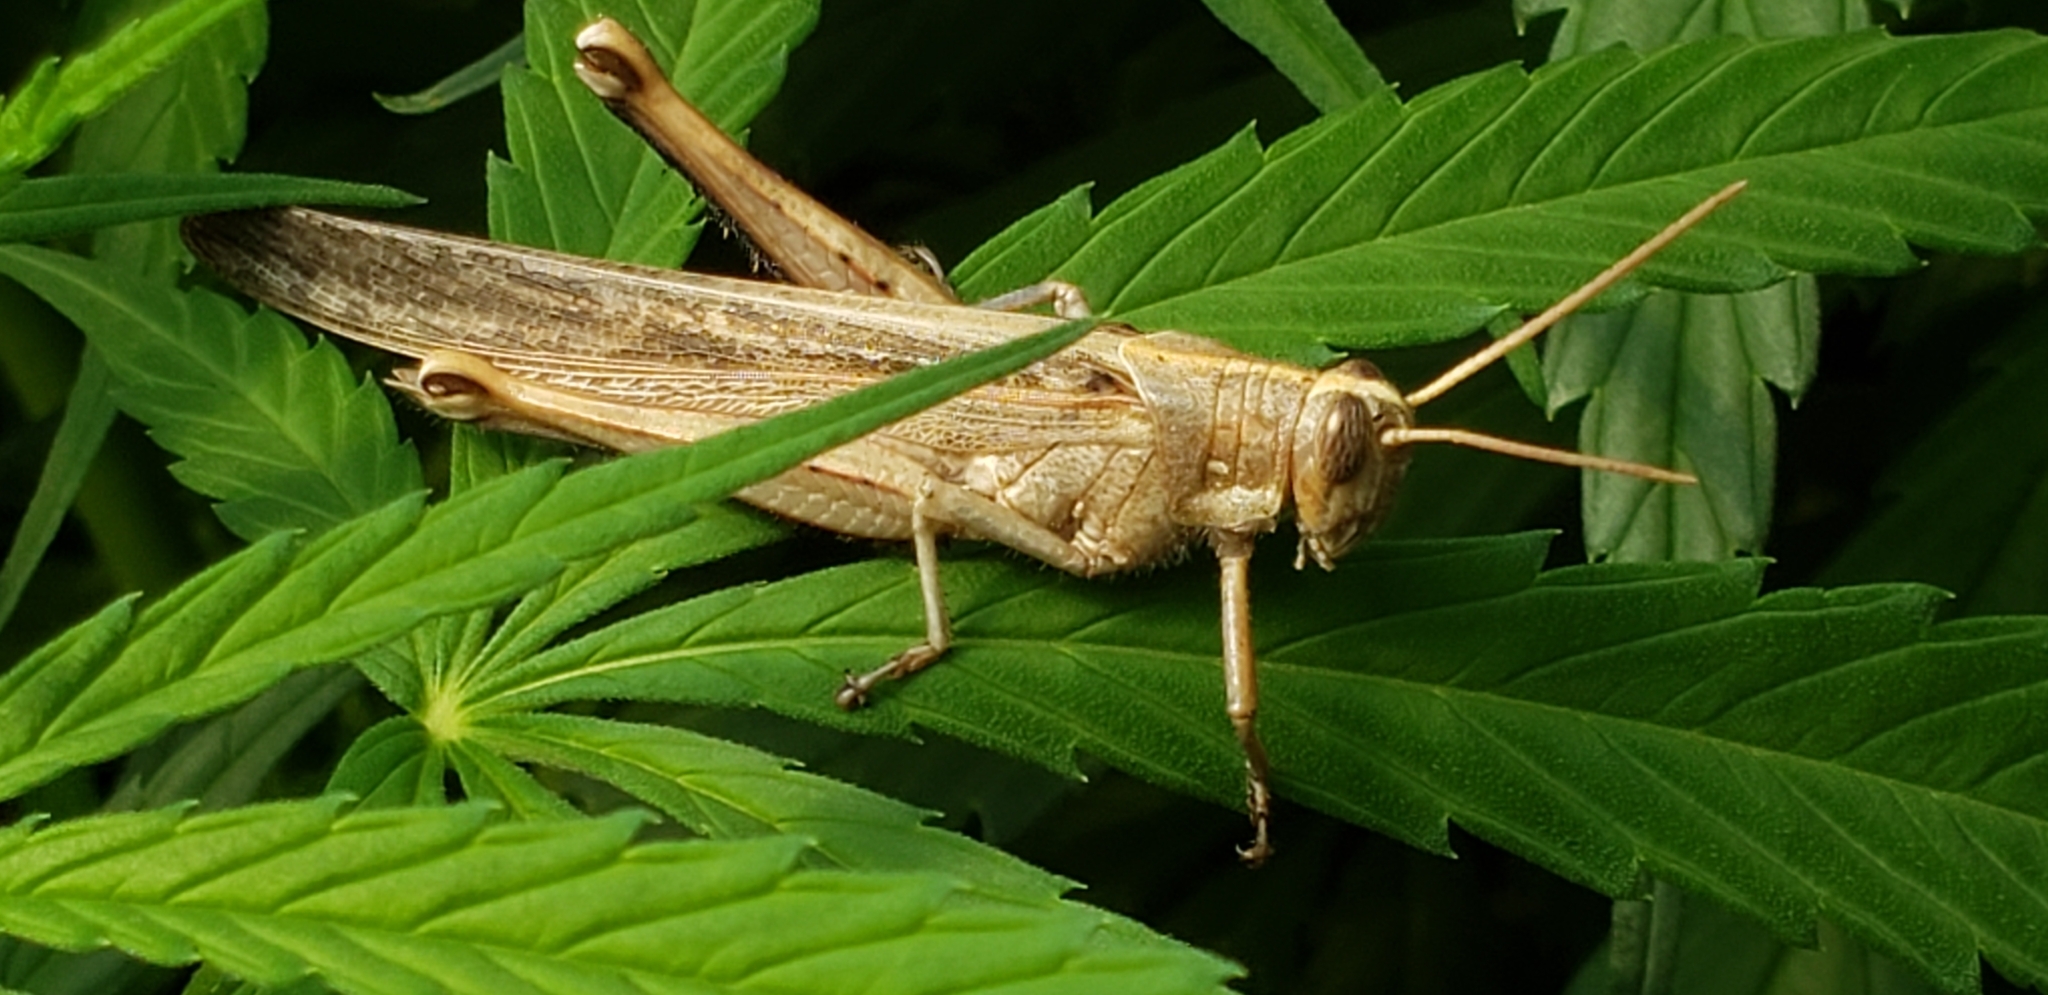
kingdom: Animalia
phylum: Arthropoda
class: Insecta
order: Orthoptera
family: Acrididae
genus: Schistocerca
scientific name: Schistocerca nitens
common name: Vagrant grasshopper
